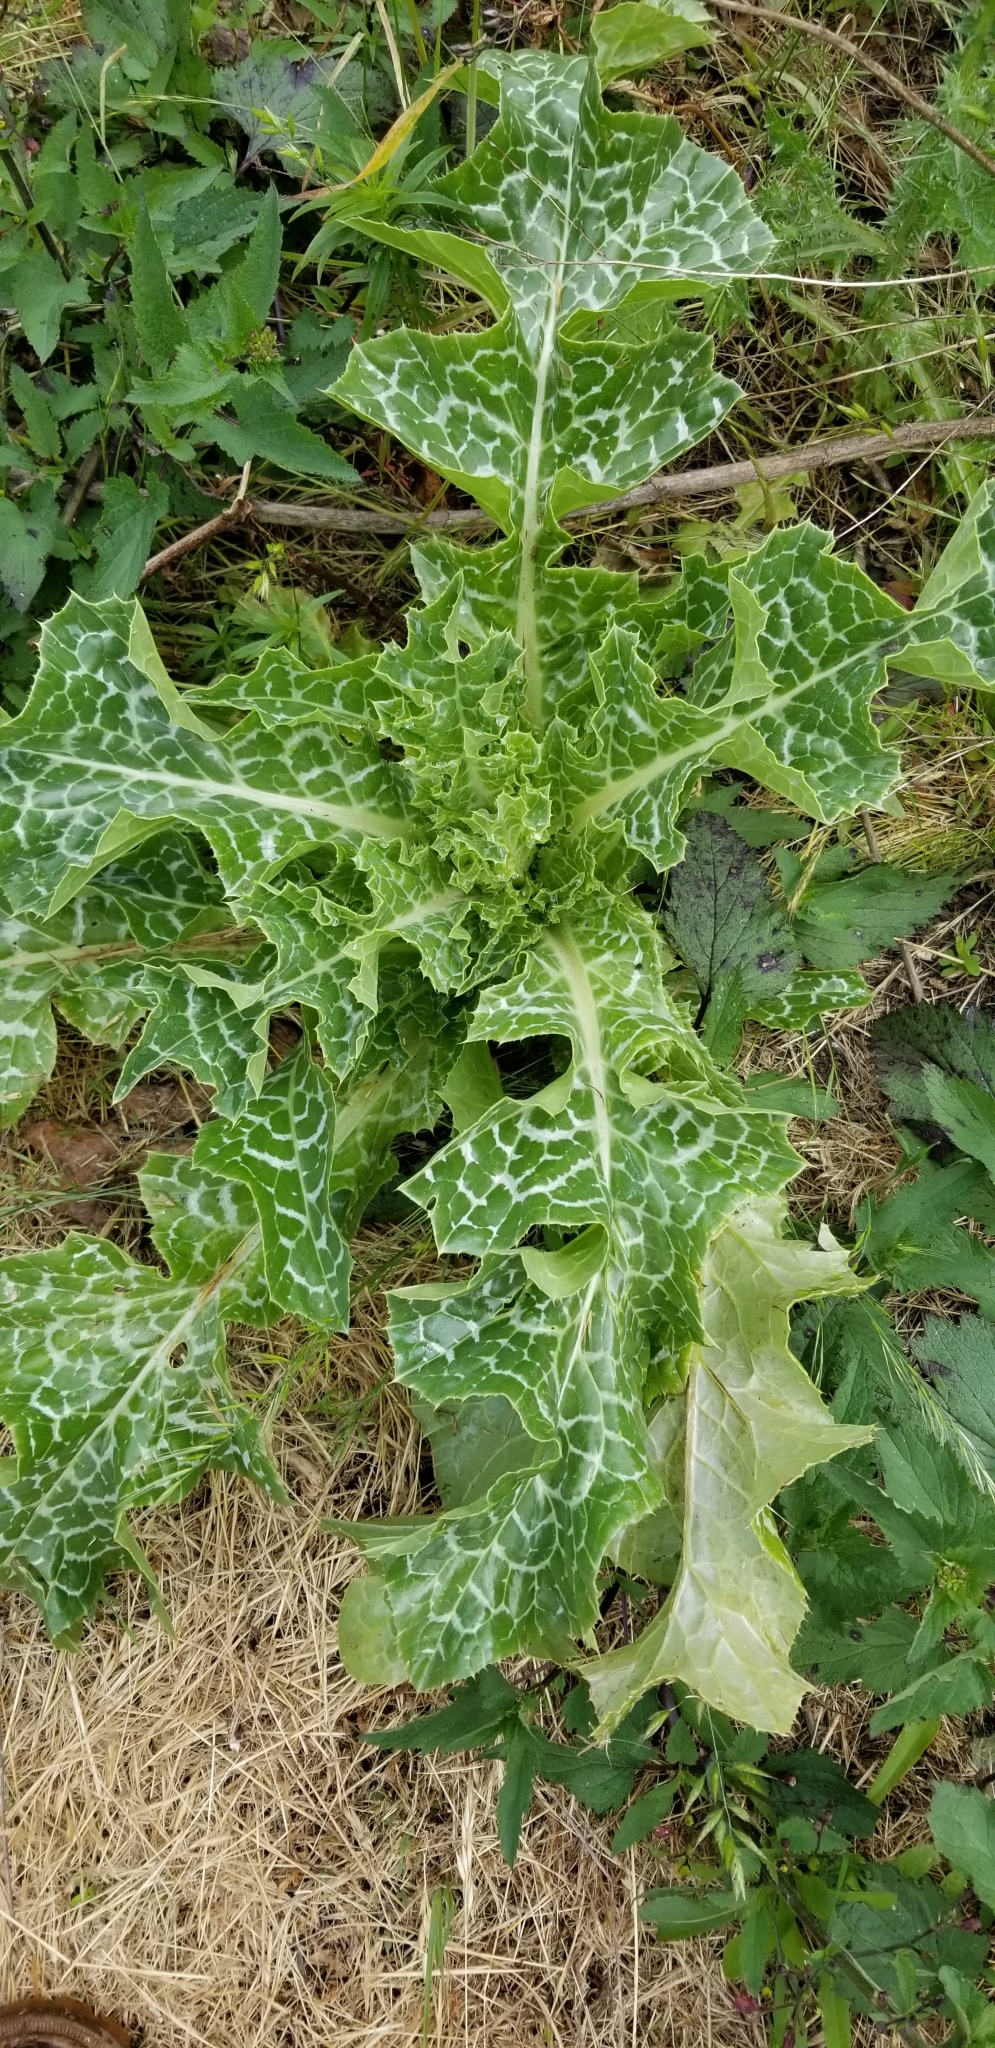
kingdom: Plantae
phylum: Tracheophyta
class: Magnoliopsida
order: Asterales
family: Asteraceae
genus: Silybum
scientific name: Silybum marianum
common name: Milk thistle
